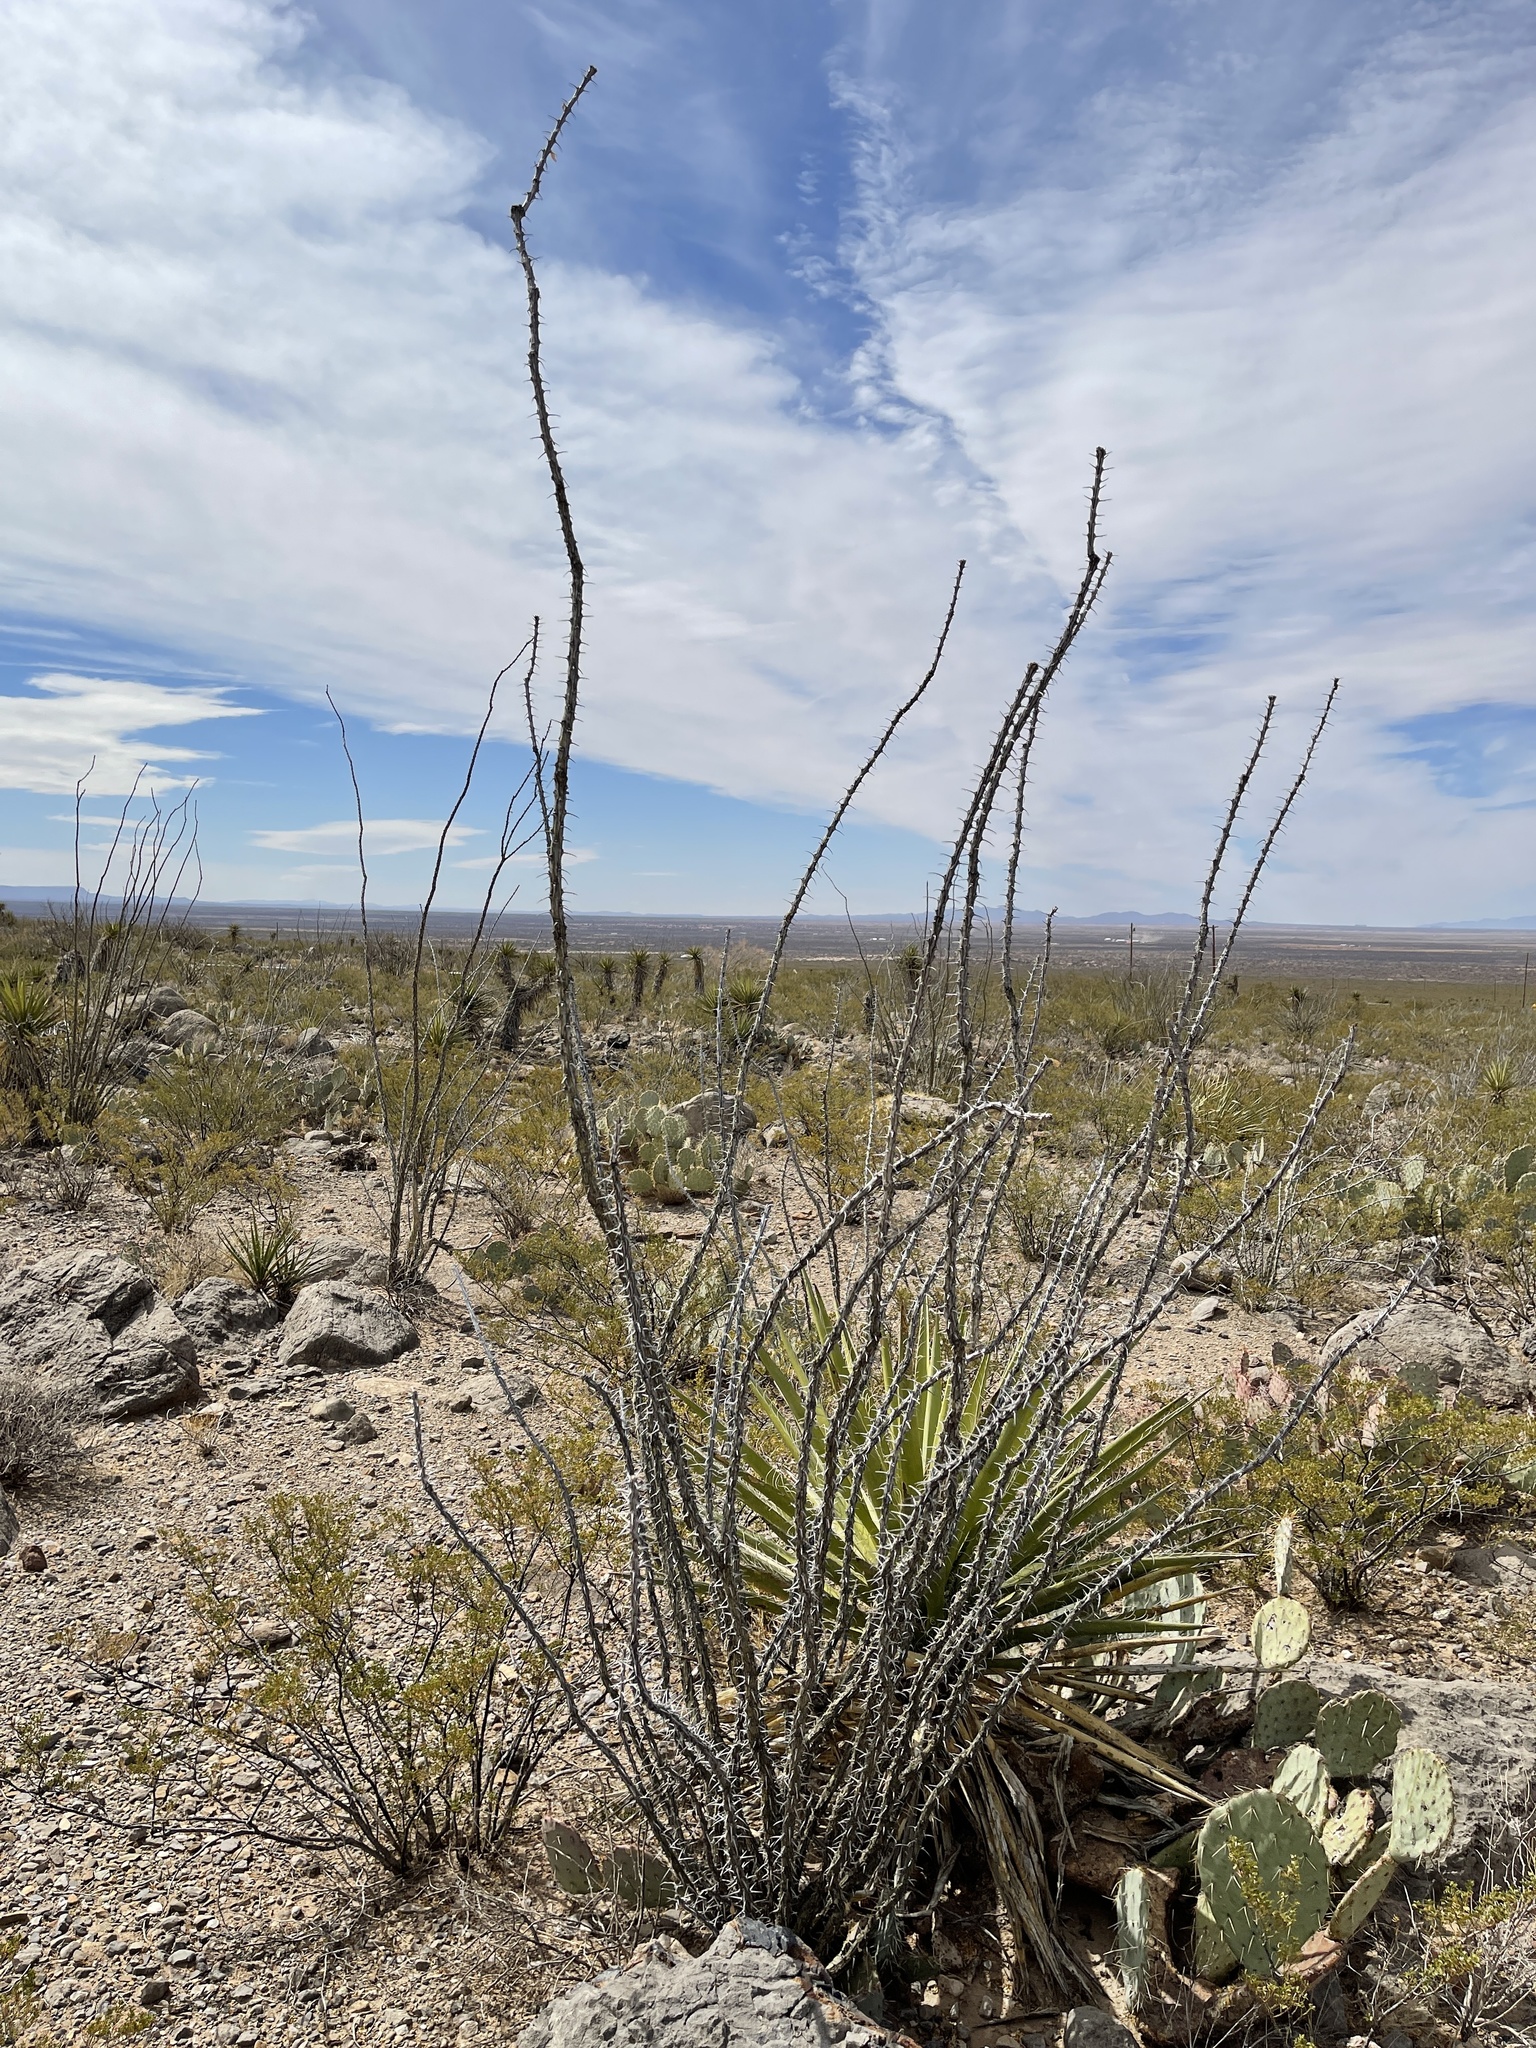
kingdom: Plantae
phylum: Tracheophyta
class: Magnoliopsida
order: Ericales
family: Fouquieriaceae
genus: Fouquieria
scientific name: Fouquieria splendens
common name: Vine-cactus
